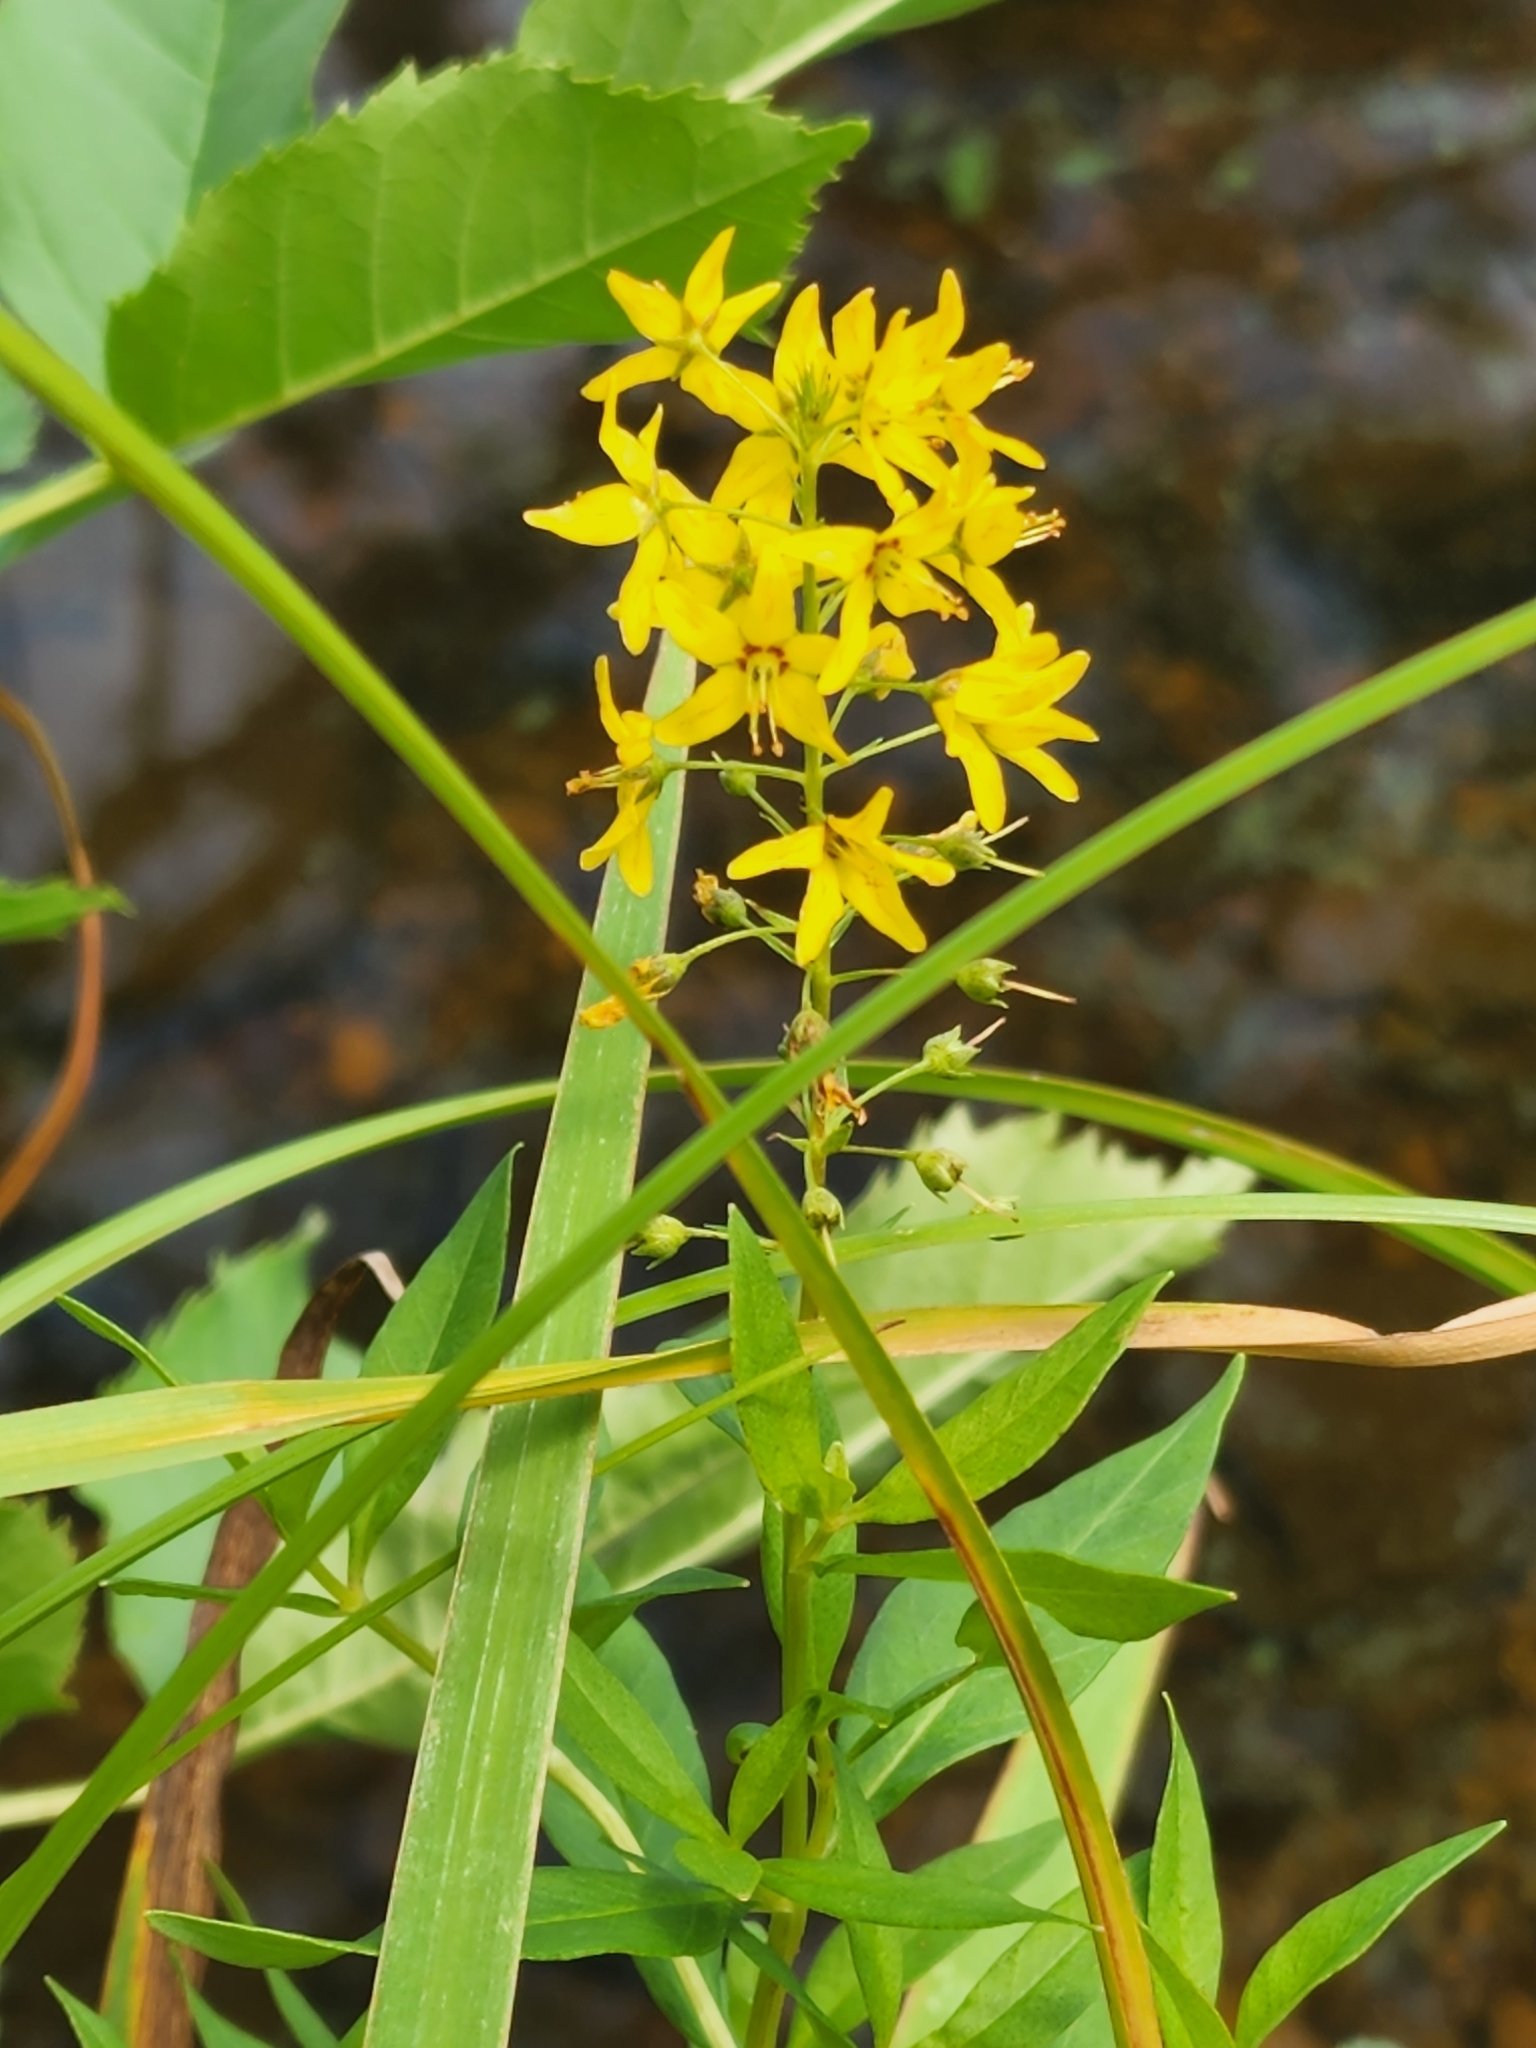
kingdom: Plantae
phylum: Tracheophyta
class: Magnoliopsida
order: Ericales
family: Primulaceae
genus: Lysimachia
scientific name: Lysimachia terrestris
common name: Lake loosestrife
